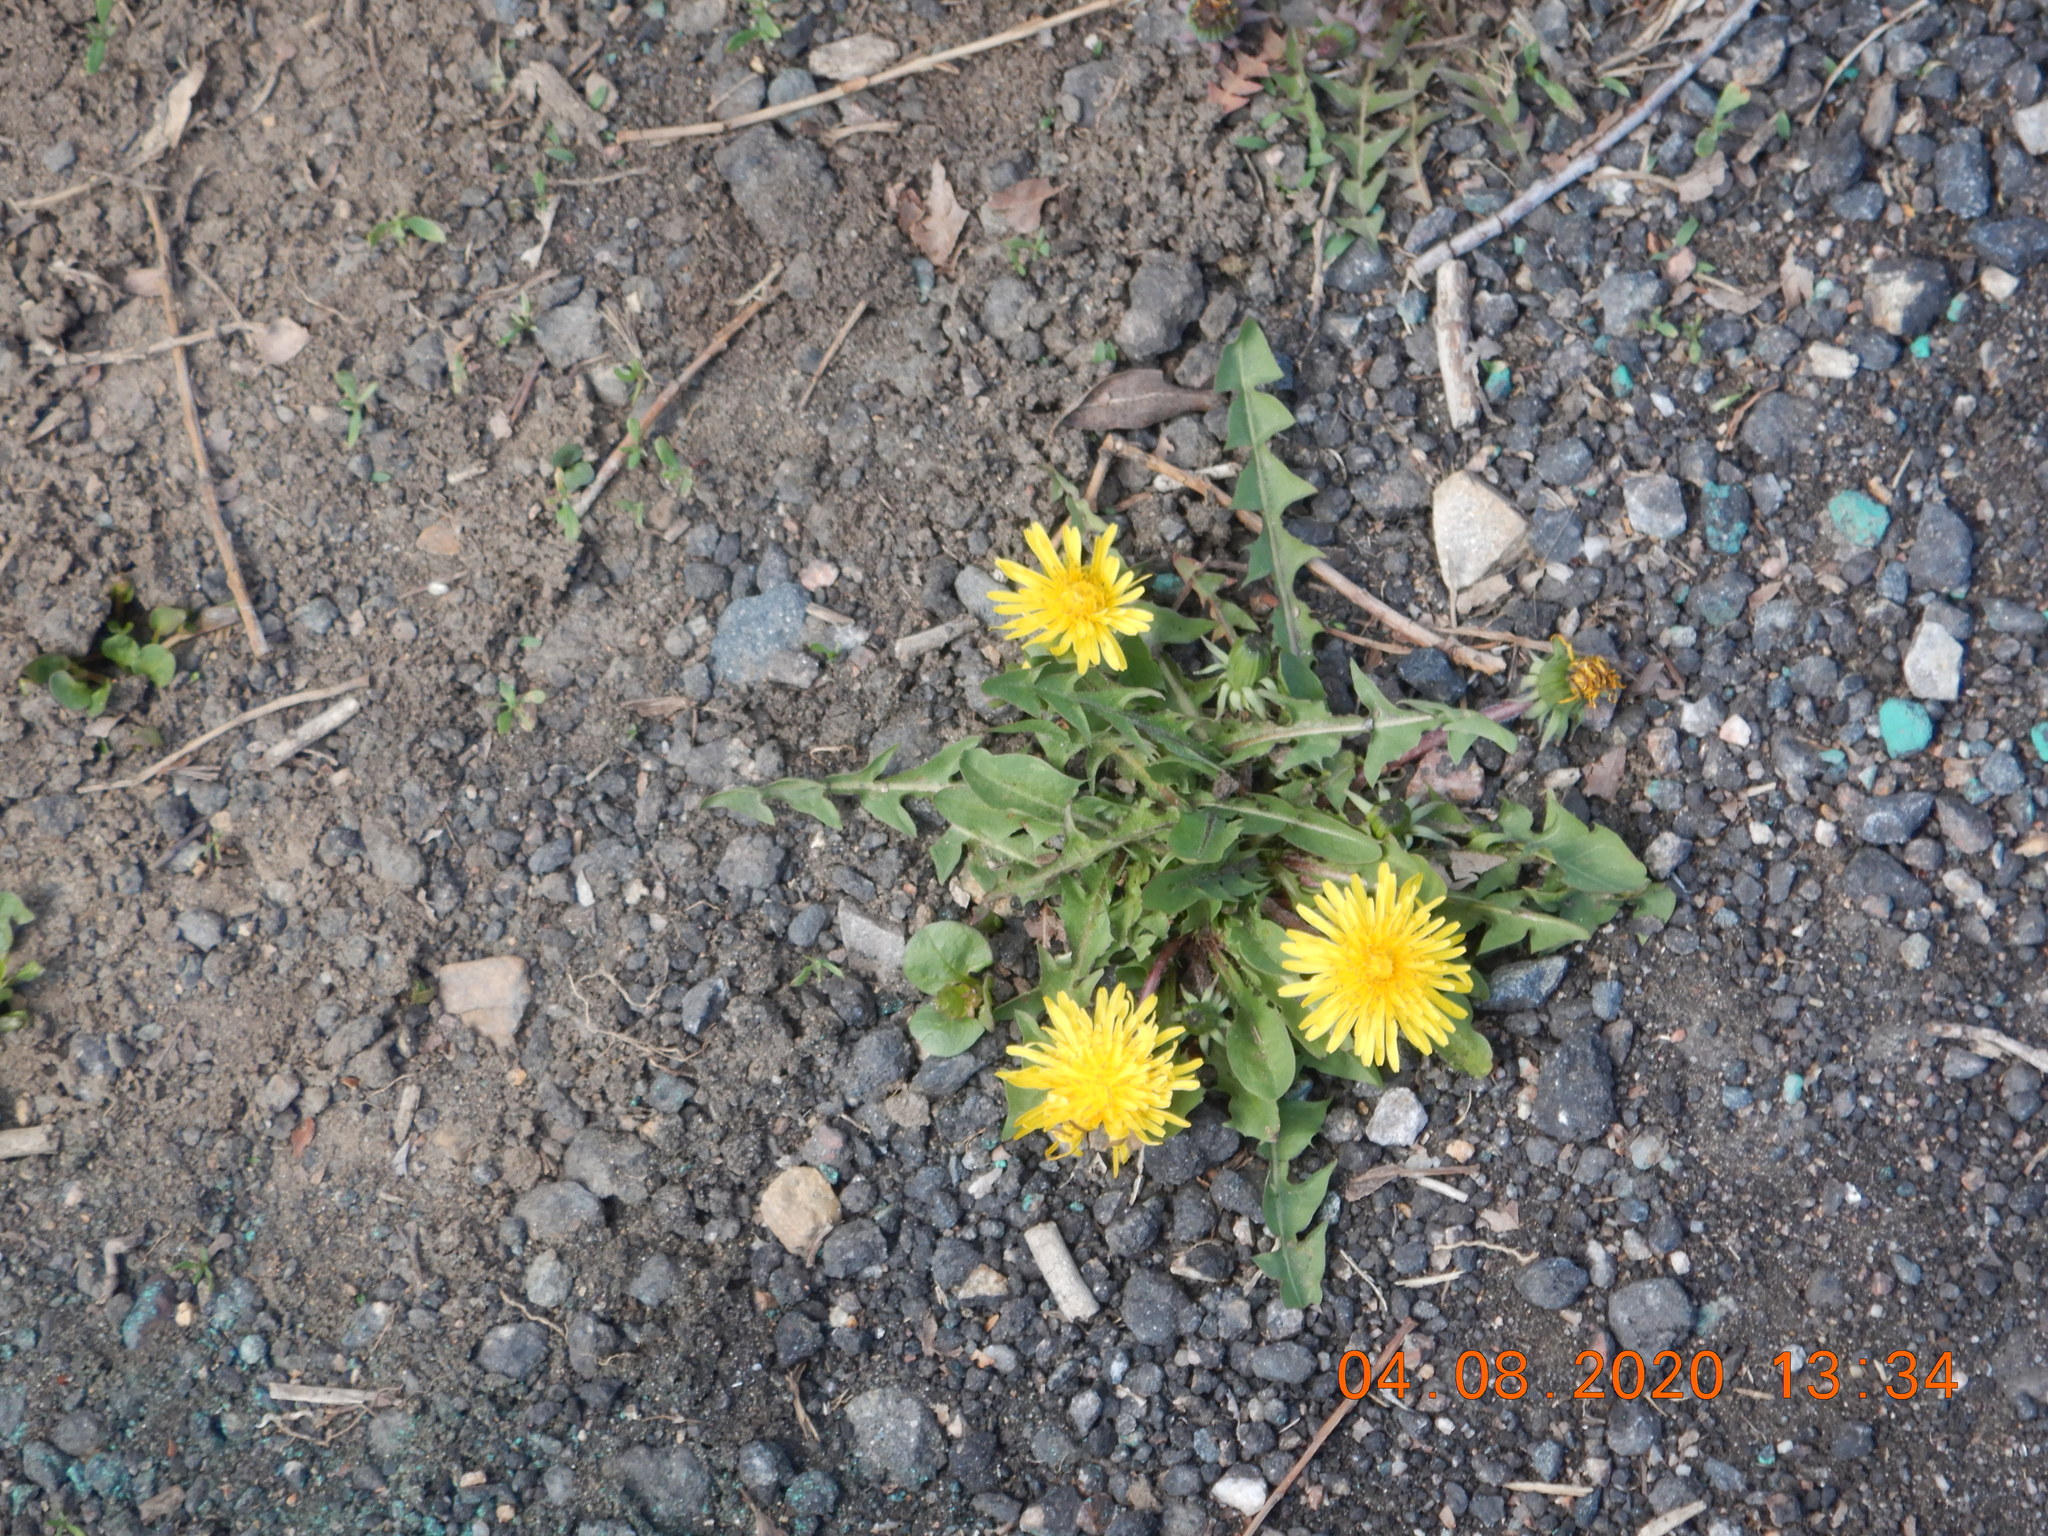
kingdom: Plantae
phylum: Tracheophyta
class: Magnoliopsida
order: Asterales
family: Asteraceae
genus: Taraxacum
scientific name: Taraxacum officinale
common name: Common dandelion
